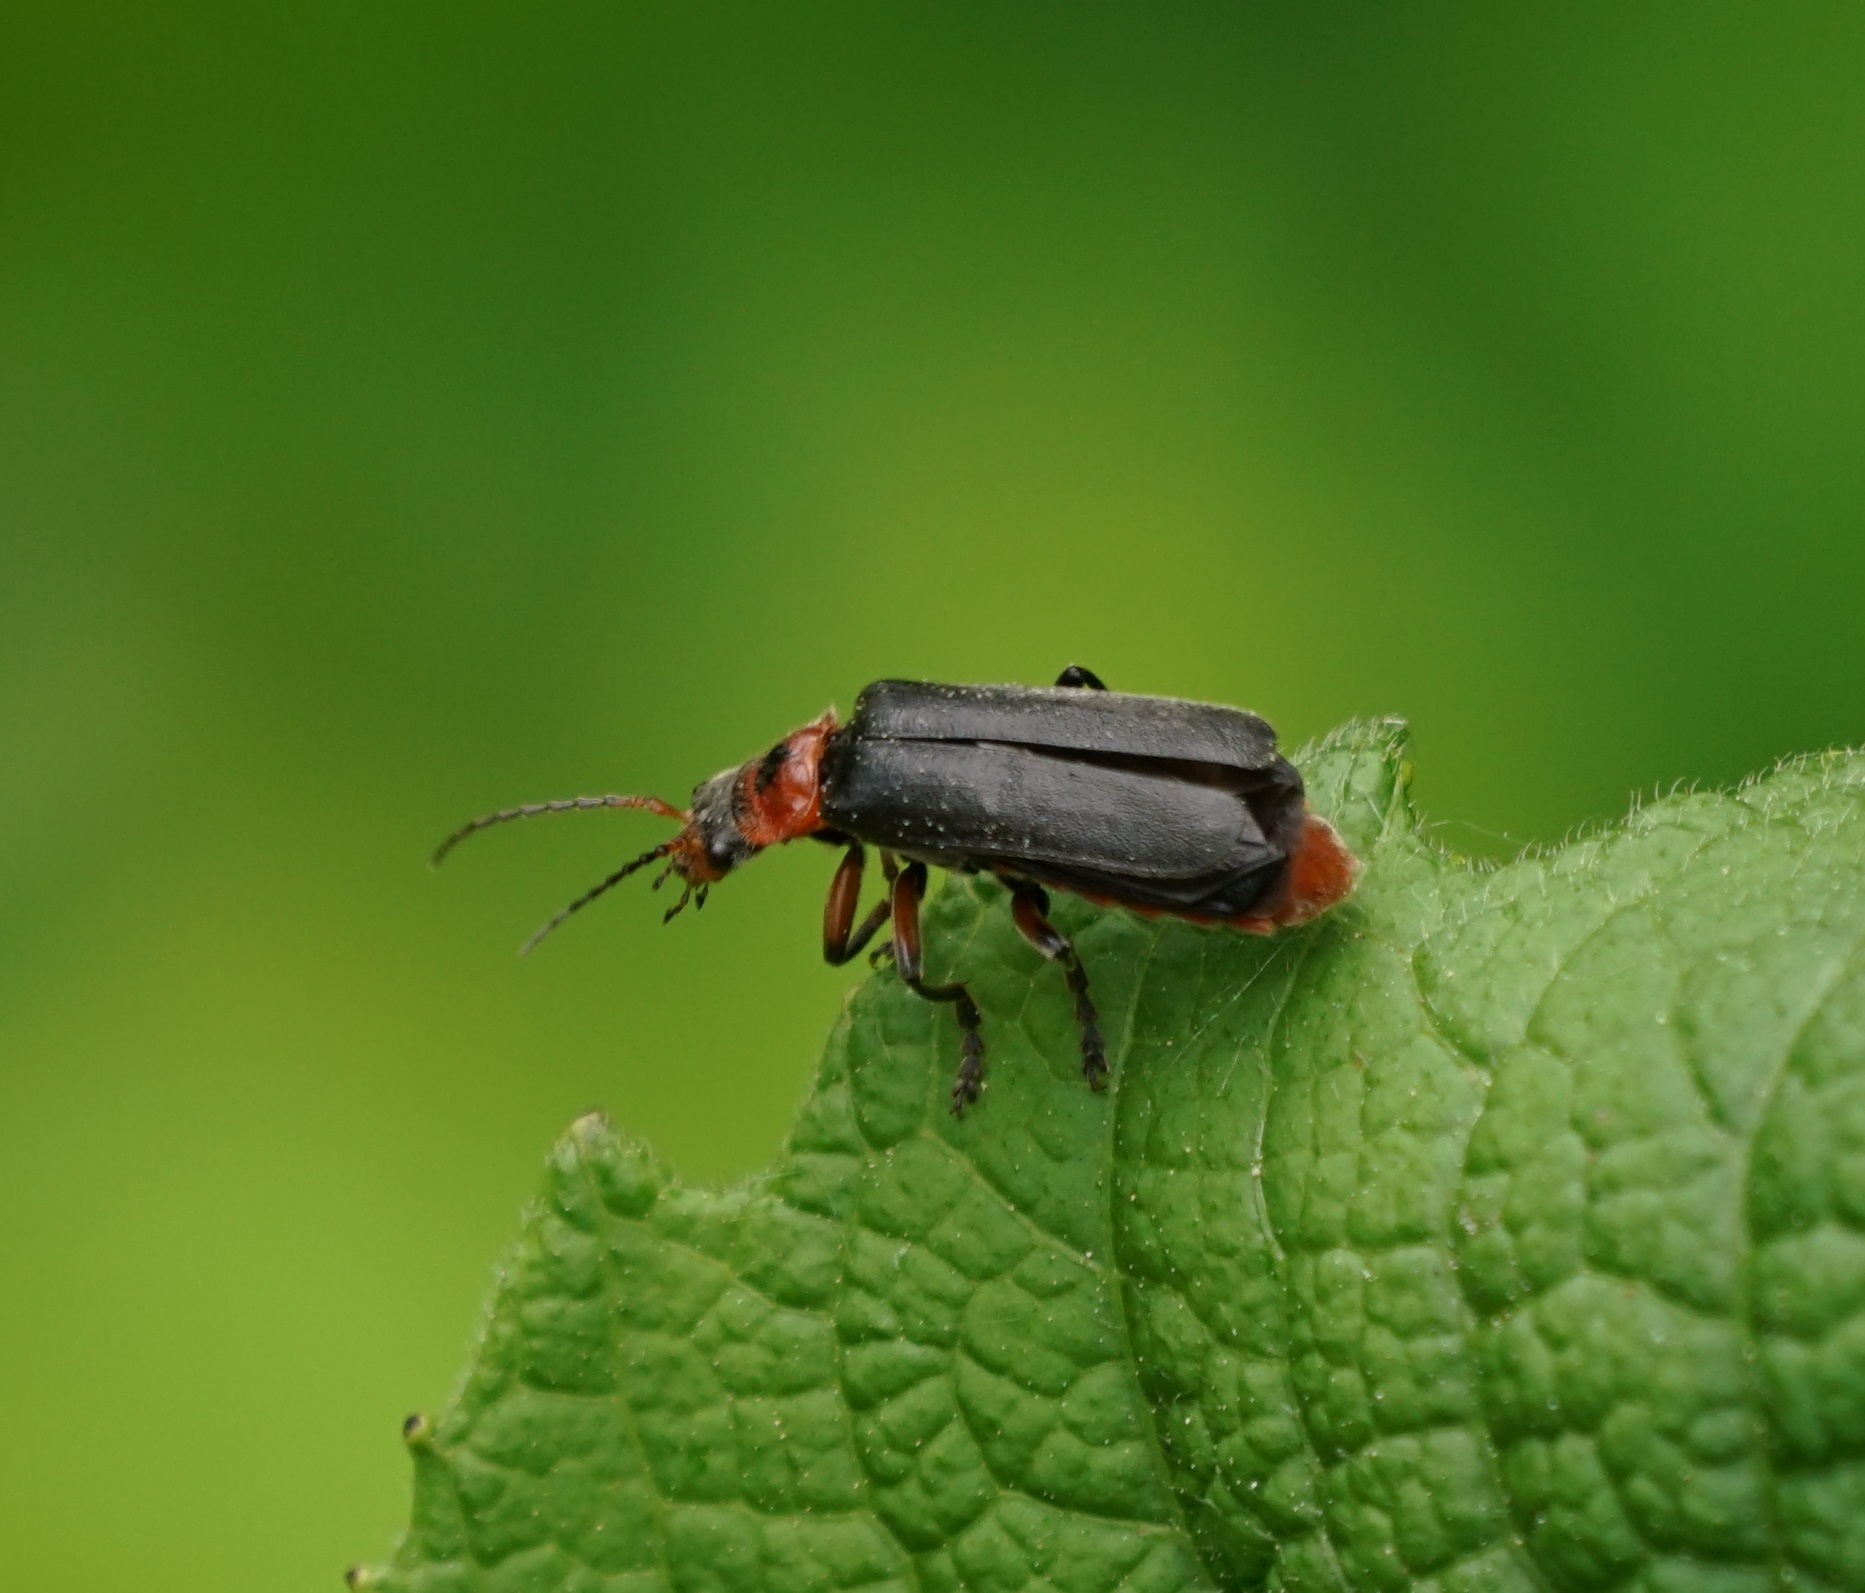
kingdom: Animalia
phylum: Arthropoda
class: Insecta
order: Coleoptera
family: Cantharidae
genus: Cantharis
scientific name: Cantharis rustica
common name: Soldier beetle
